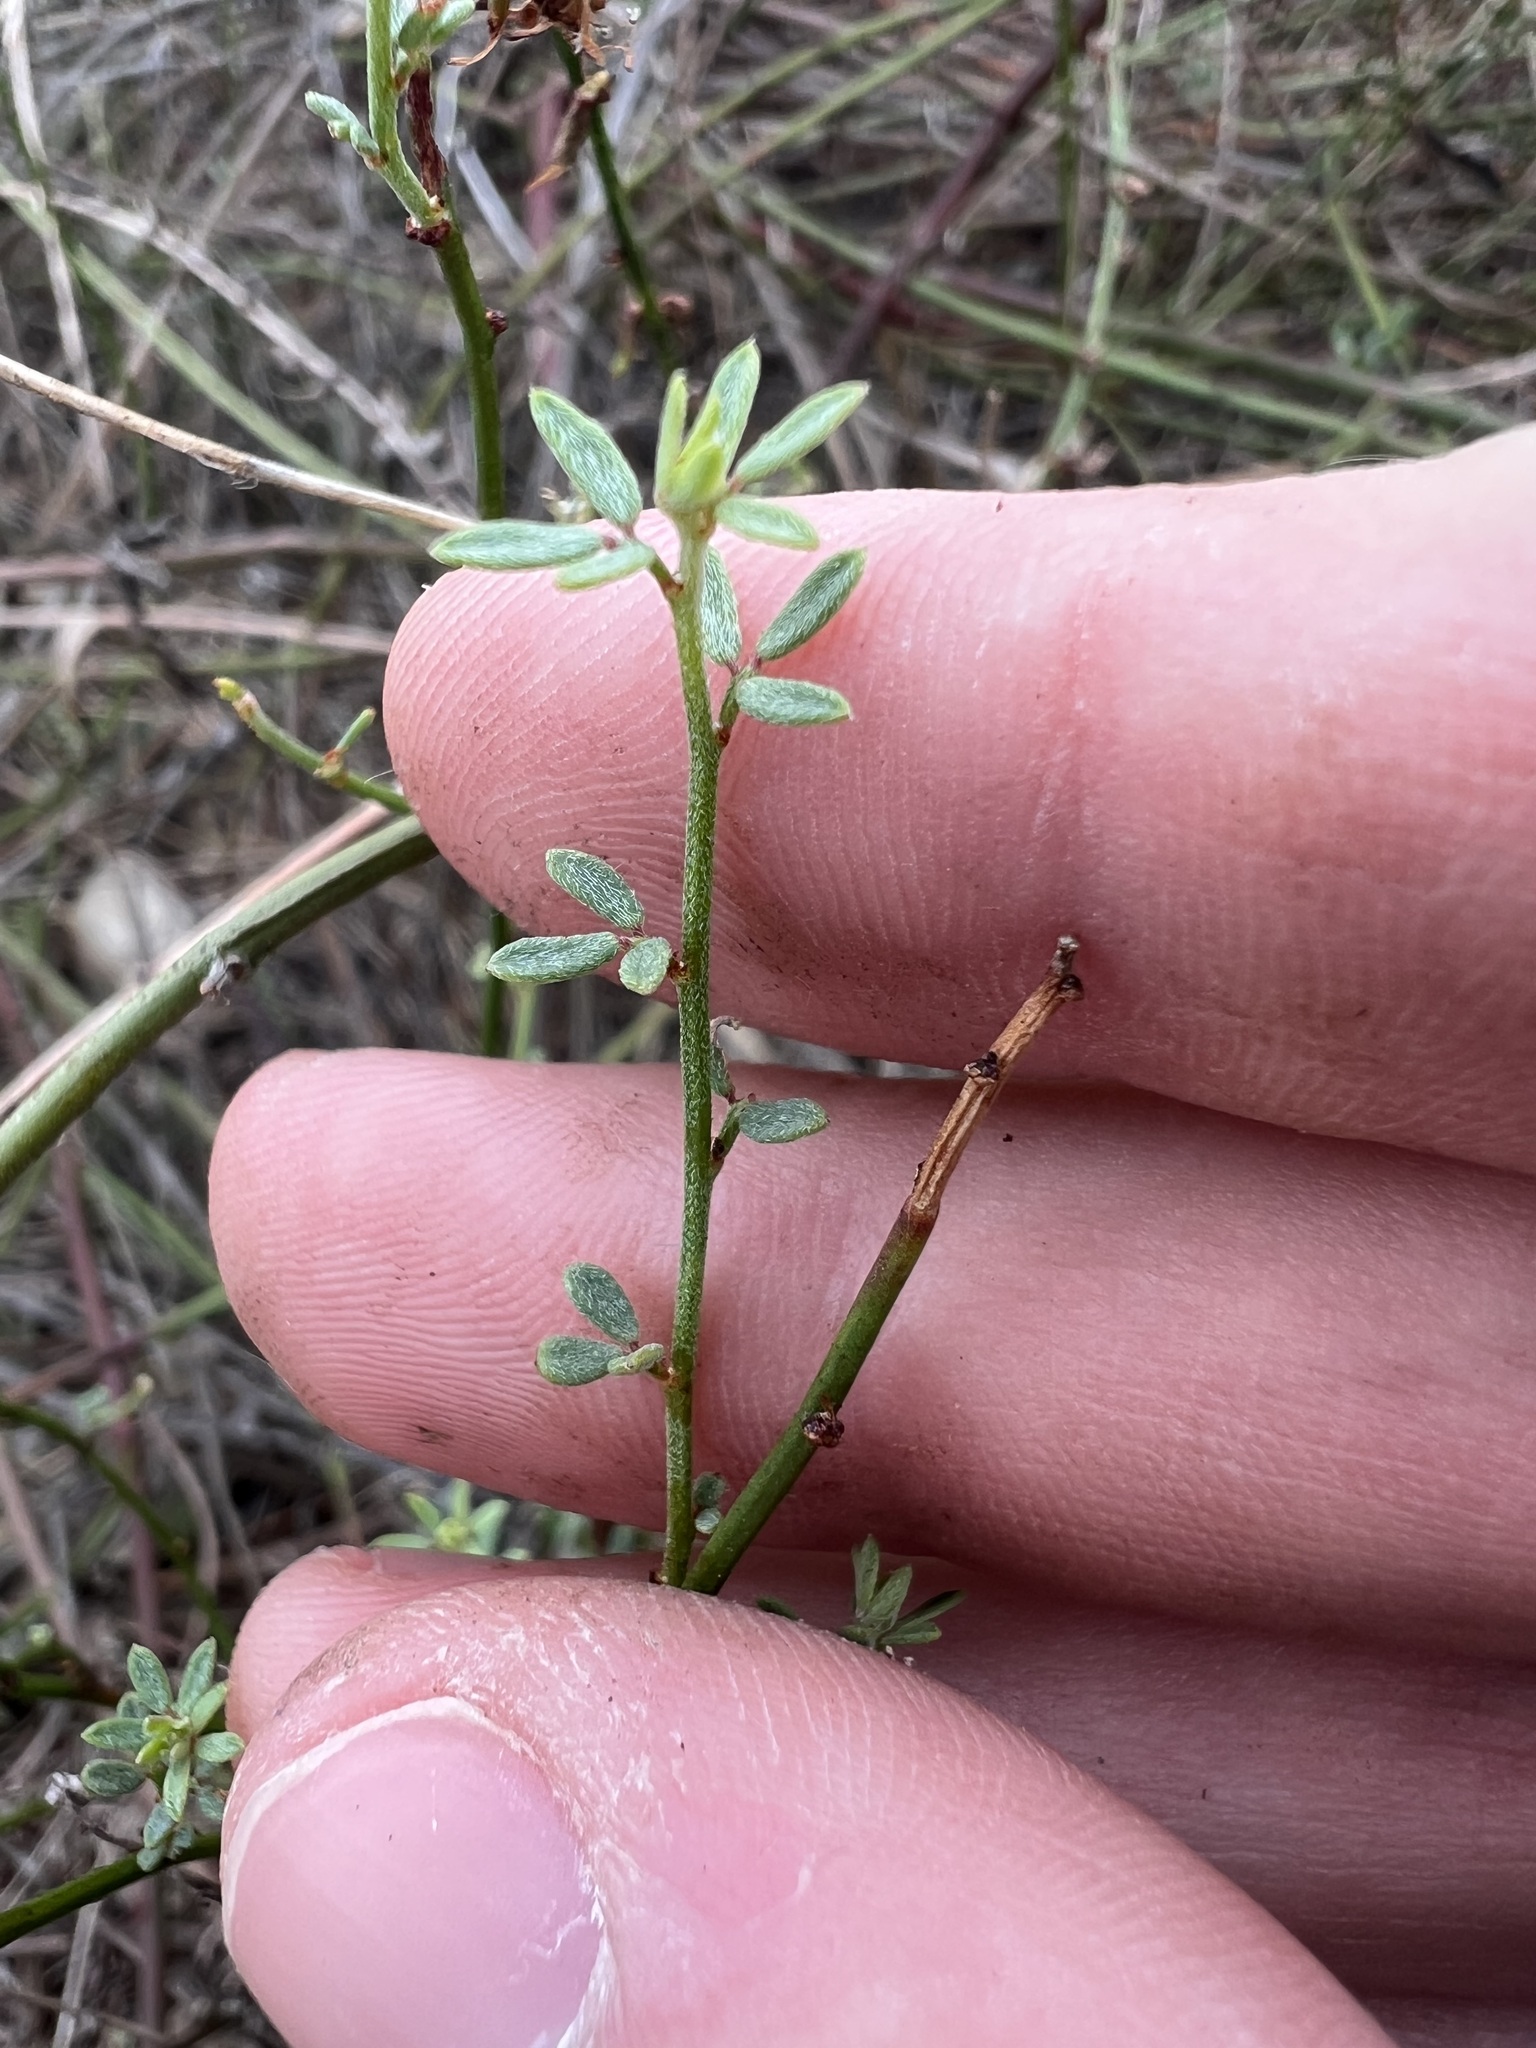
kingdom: Plantae
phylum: Tracheophyta
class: Magnoliopsida
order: Fabales
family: Fabaceae
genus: Acmispon
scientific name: Acmispon glaber
